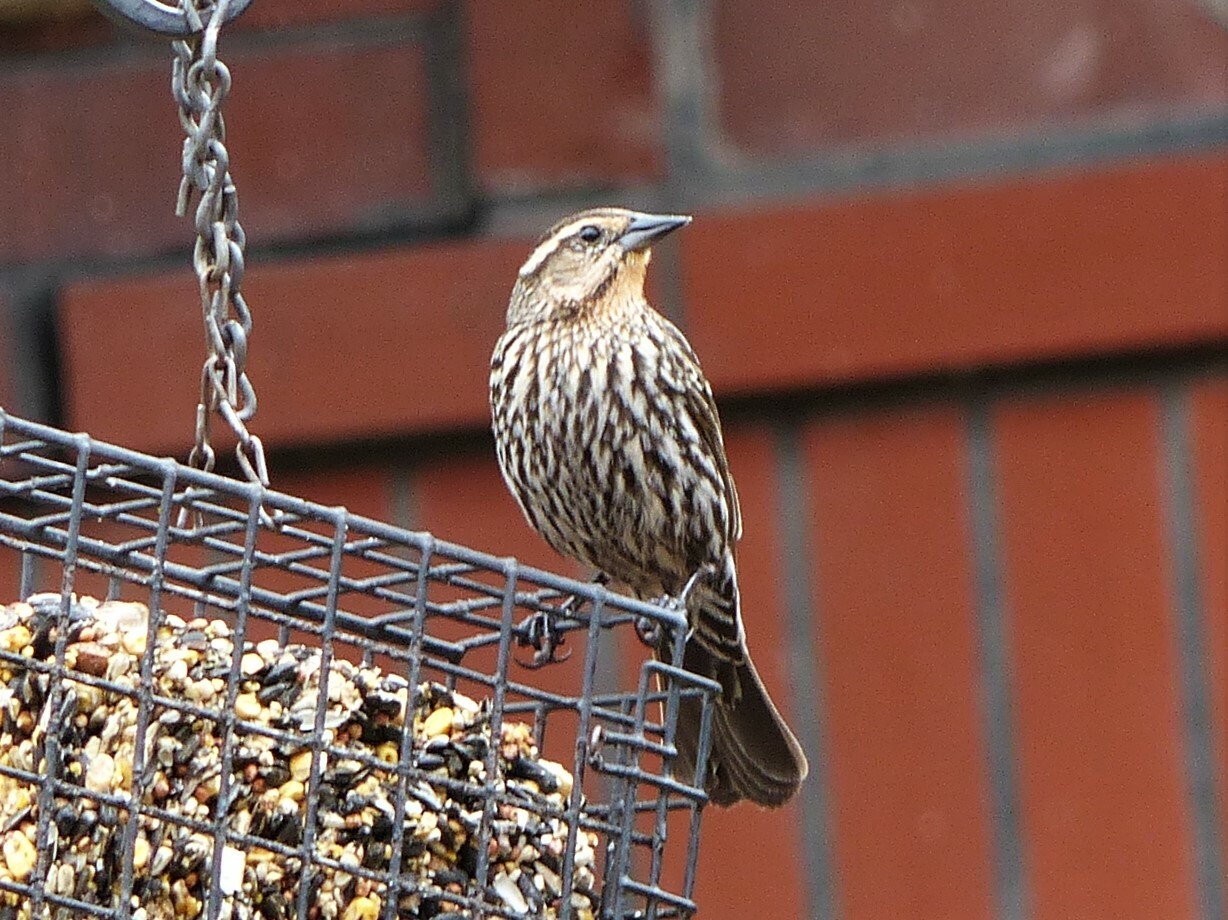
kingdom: Animalia
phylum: Chordata
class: Aves
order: Passeriformes
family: Icteridae
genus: Agelaius
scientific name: Agelaius phoeniceus
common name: Red-winged blackbird
